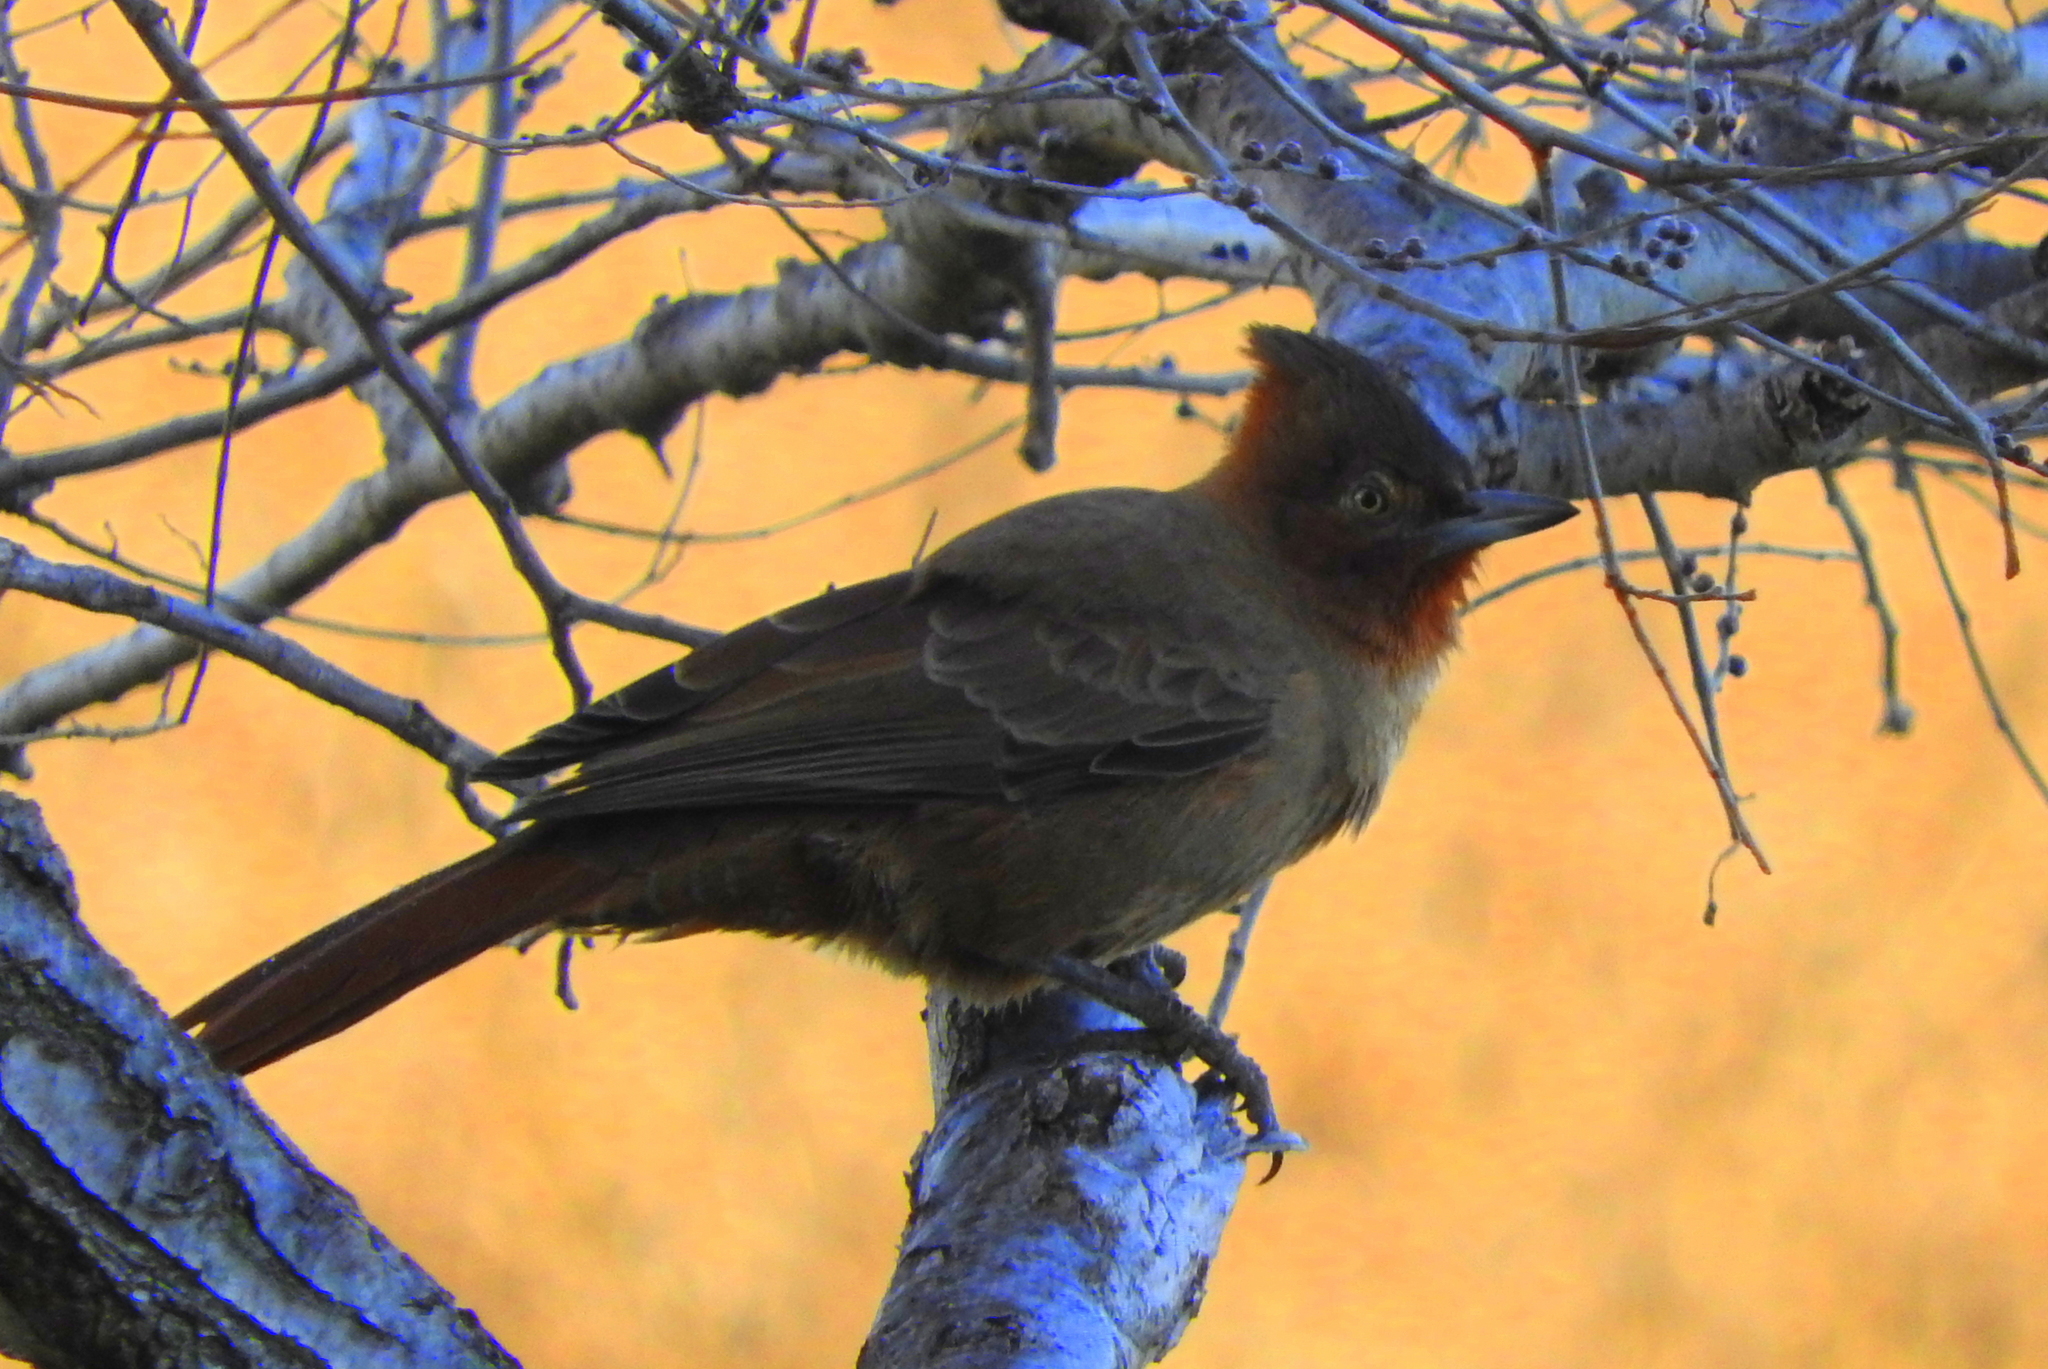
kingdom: Animalia
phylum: Chordata
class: Aves
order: Passeriformes
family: Furnariidae
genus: Pseudoseisura
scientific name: Pseudoseisura lophotes
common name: Brown cacholote
